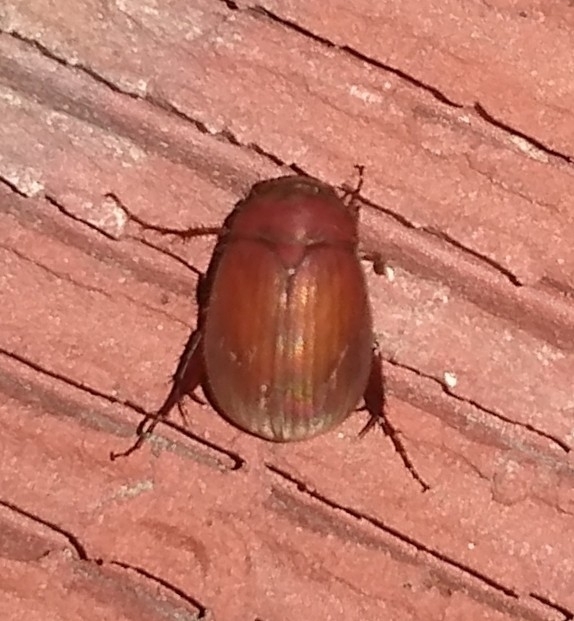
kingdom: Animalia
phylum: Arthropoda
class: Insecta
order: Coleoptera
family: Scarabaeidae
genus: Maladera
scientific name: Maladera formosae
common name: Asiatic garden beetle
